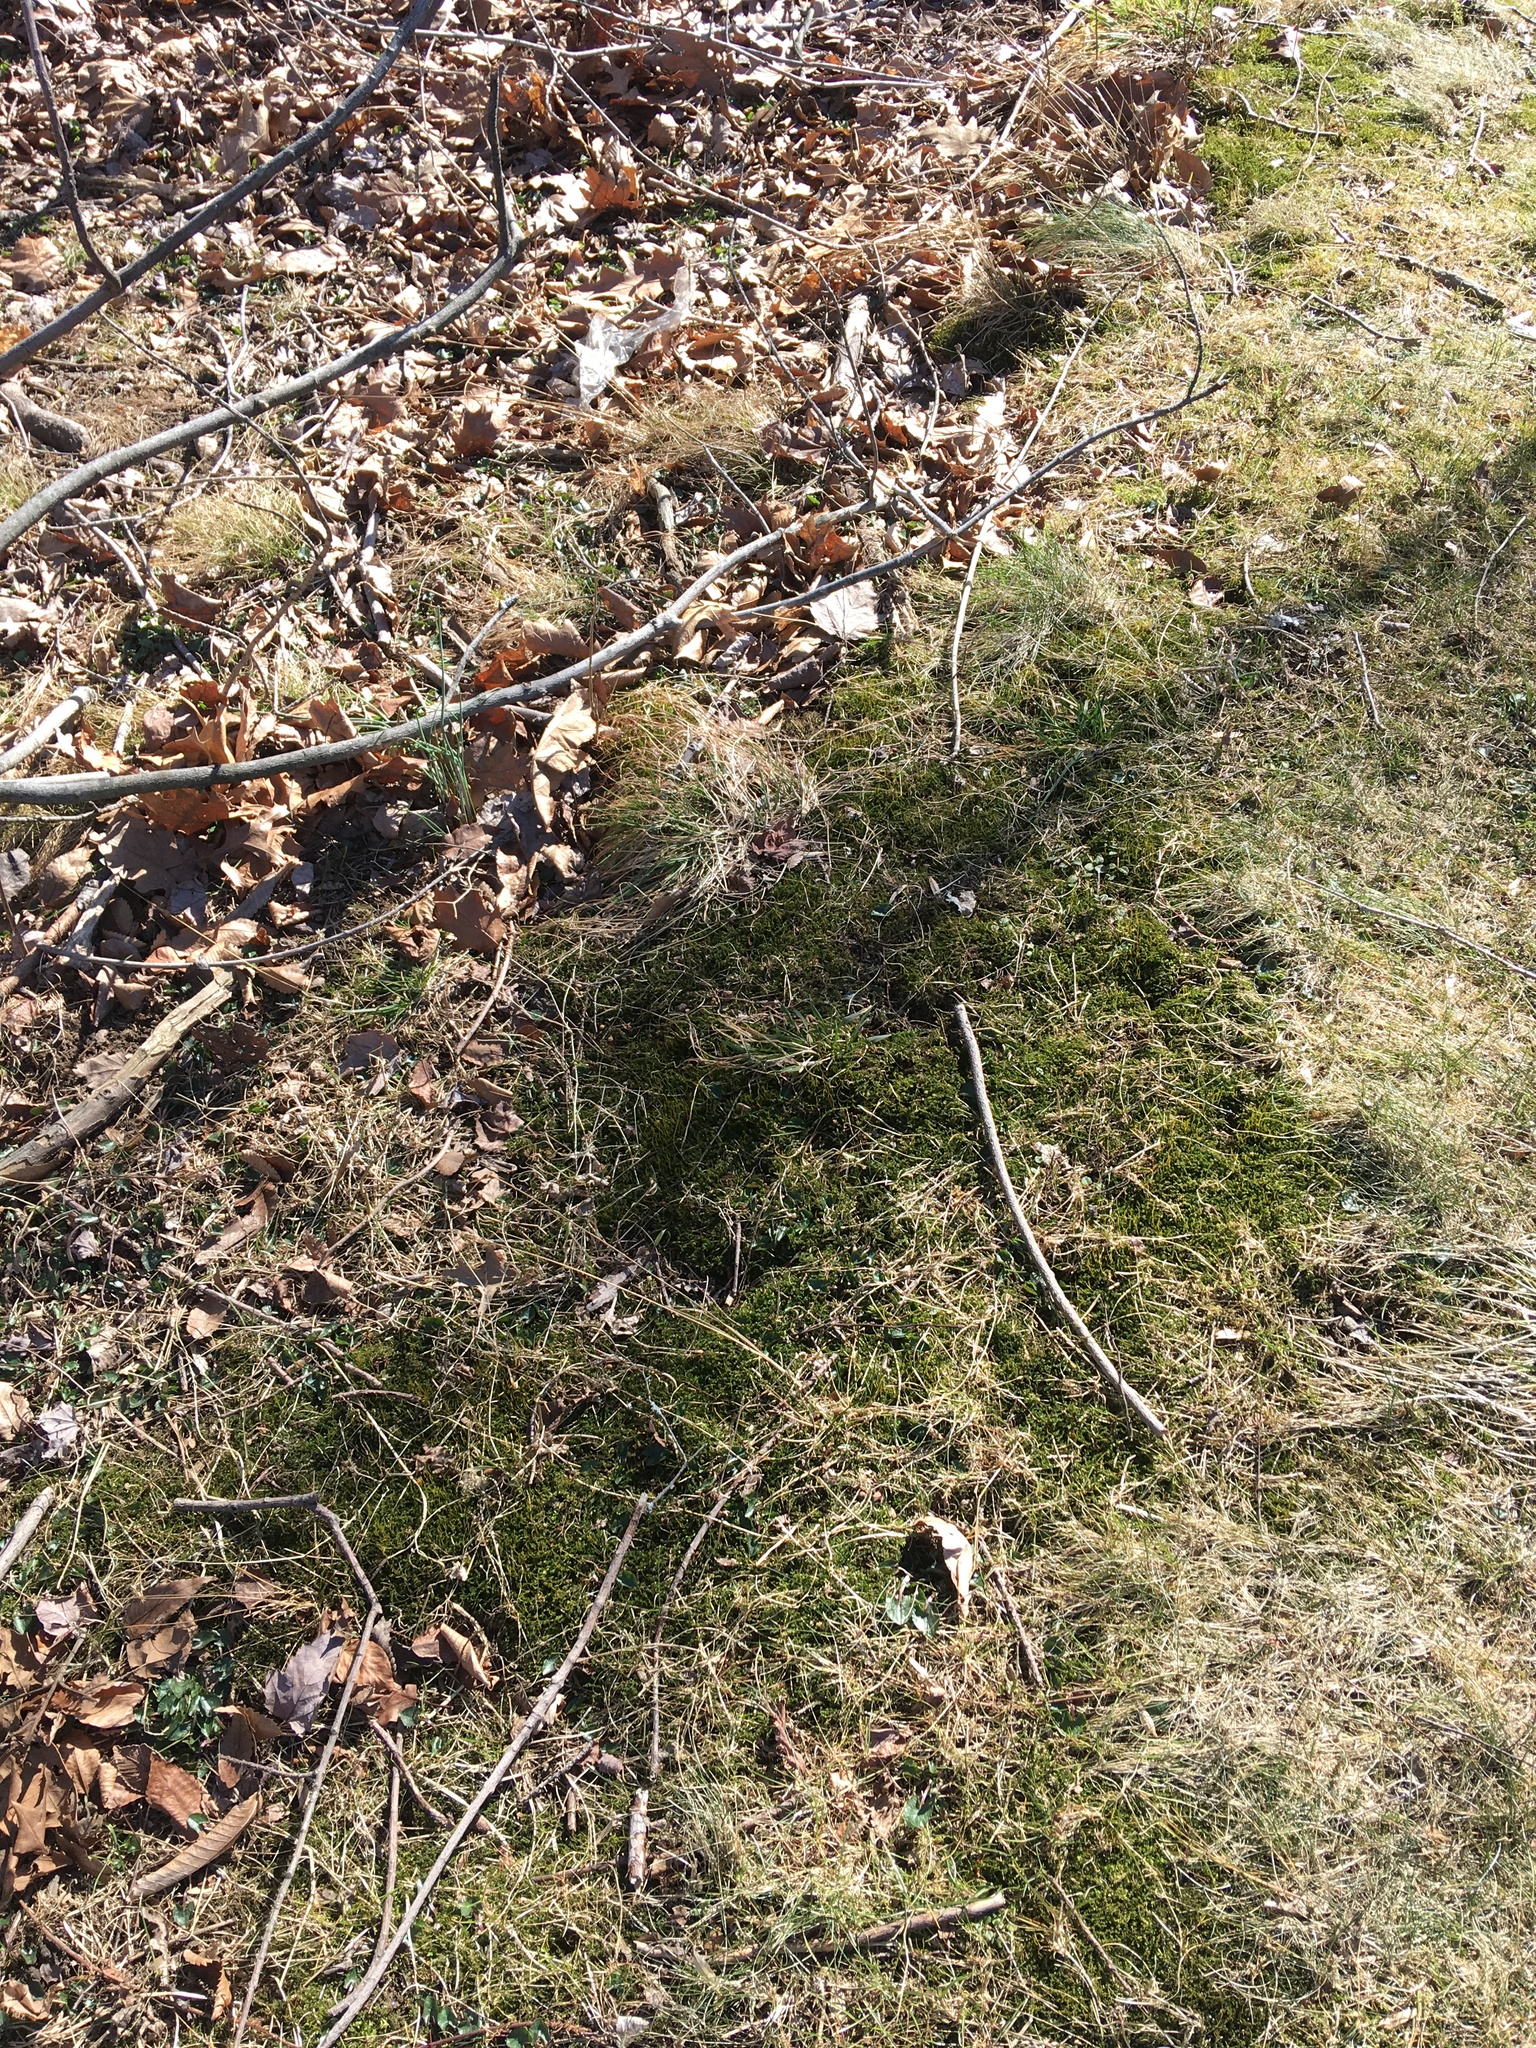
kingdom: Plantae
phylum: Bryophyta
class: Bryopsida
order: Bryales
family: Mniaceae
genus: Plagiomnium
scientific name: Plagiomnium cuspidatum
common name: Woodsy leafy moss
